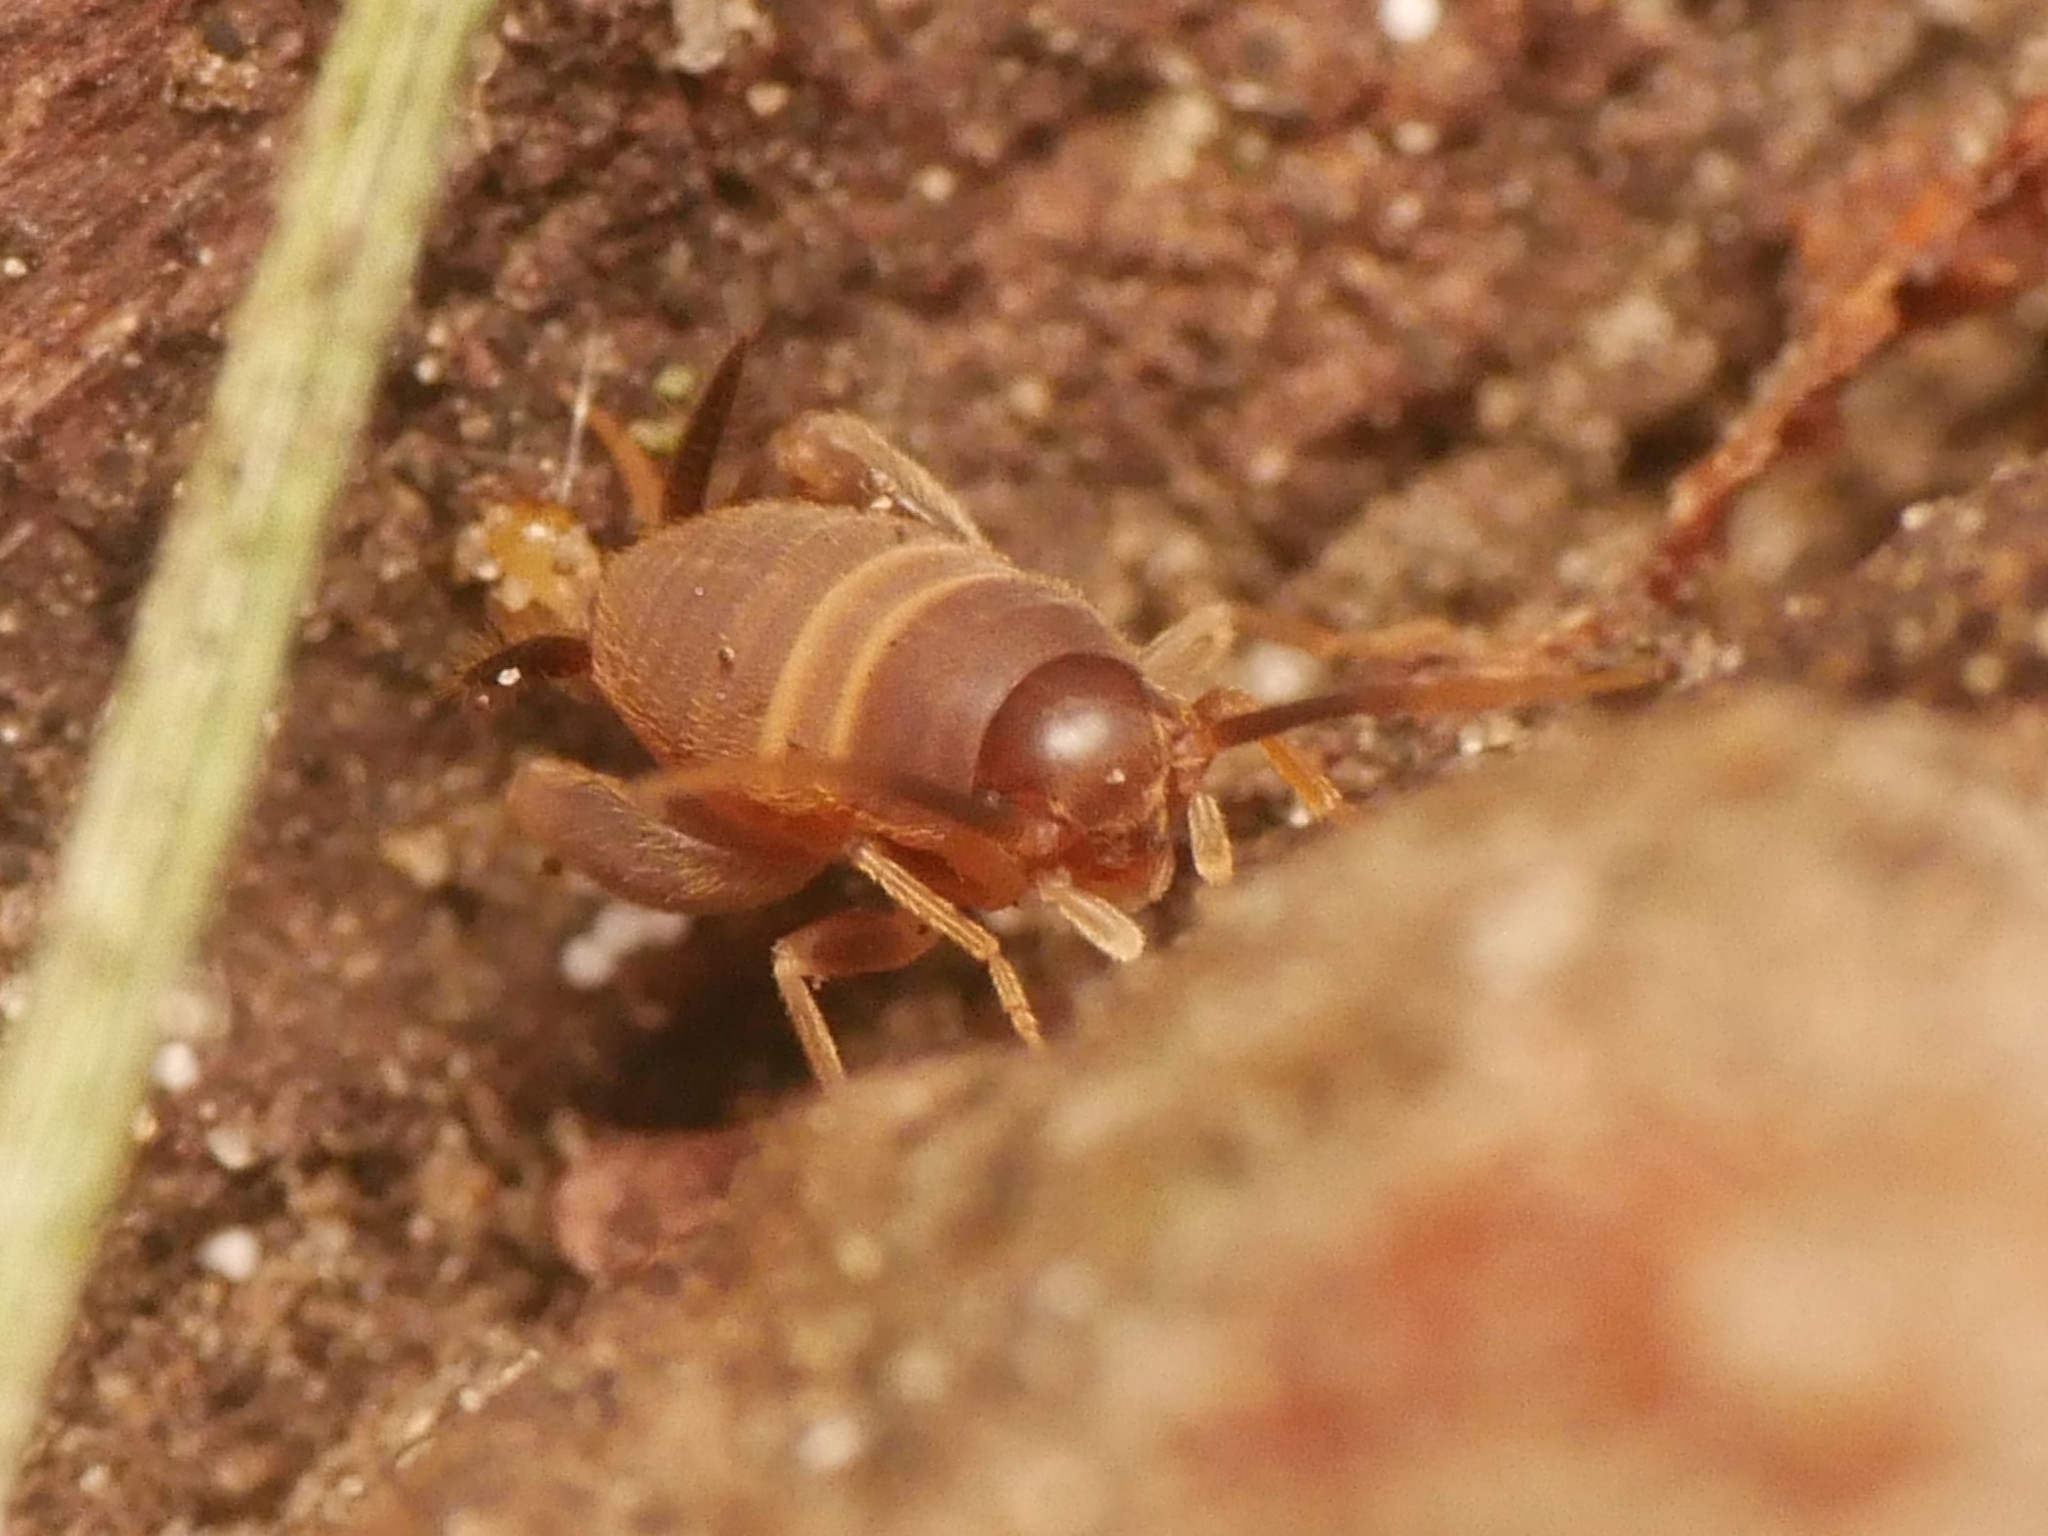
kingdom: Animalia
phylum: Arthropoda
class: Insecta
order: Orthoptera
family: Myrmecophilidae
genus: Myrmecophilus
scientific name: Myrmecophilus acervorum
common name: Ants-nest cricket
